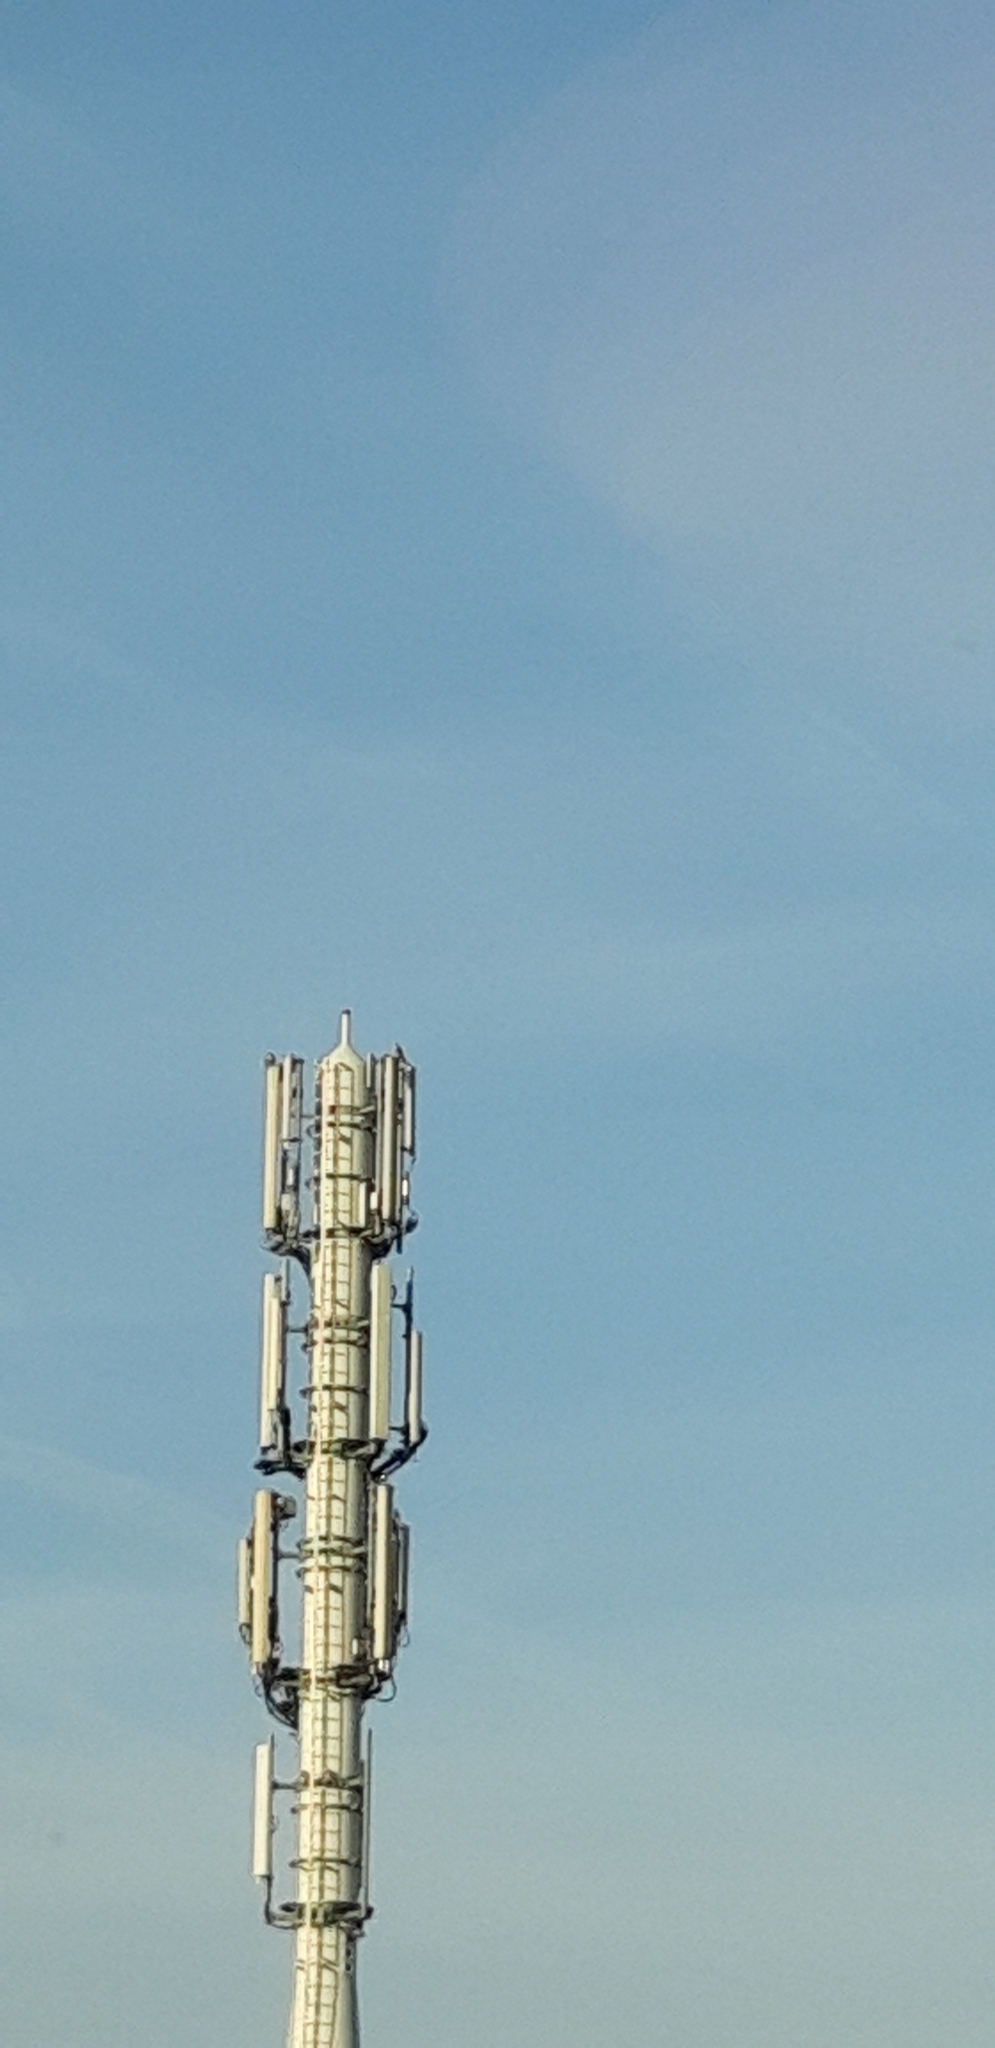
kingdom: Animalia
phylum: Chordata
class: Aves
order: Falconiformes
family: Falconidae
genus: Falco
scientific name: Falco peregrinus
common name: Peregrine falcon
